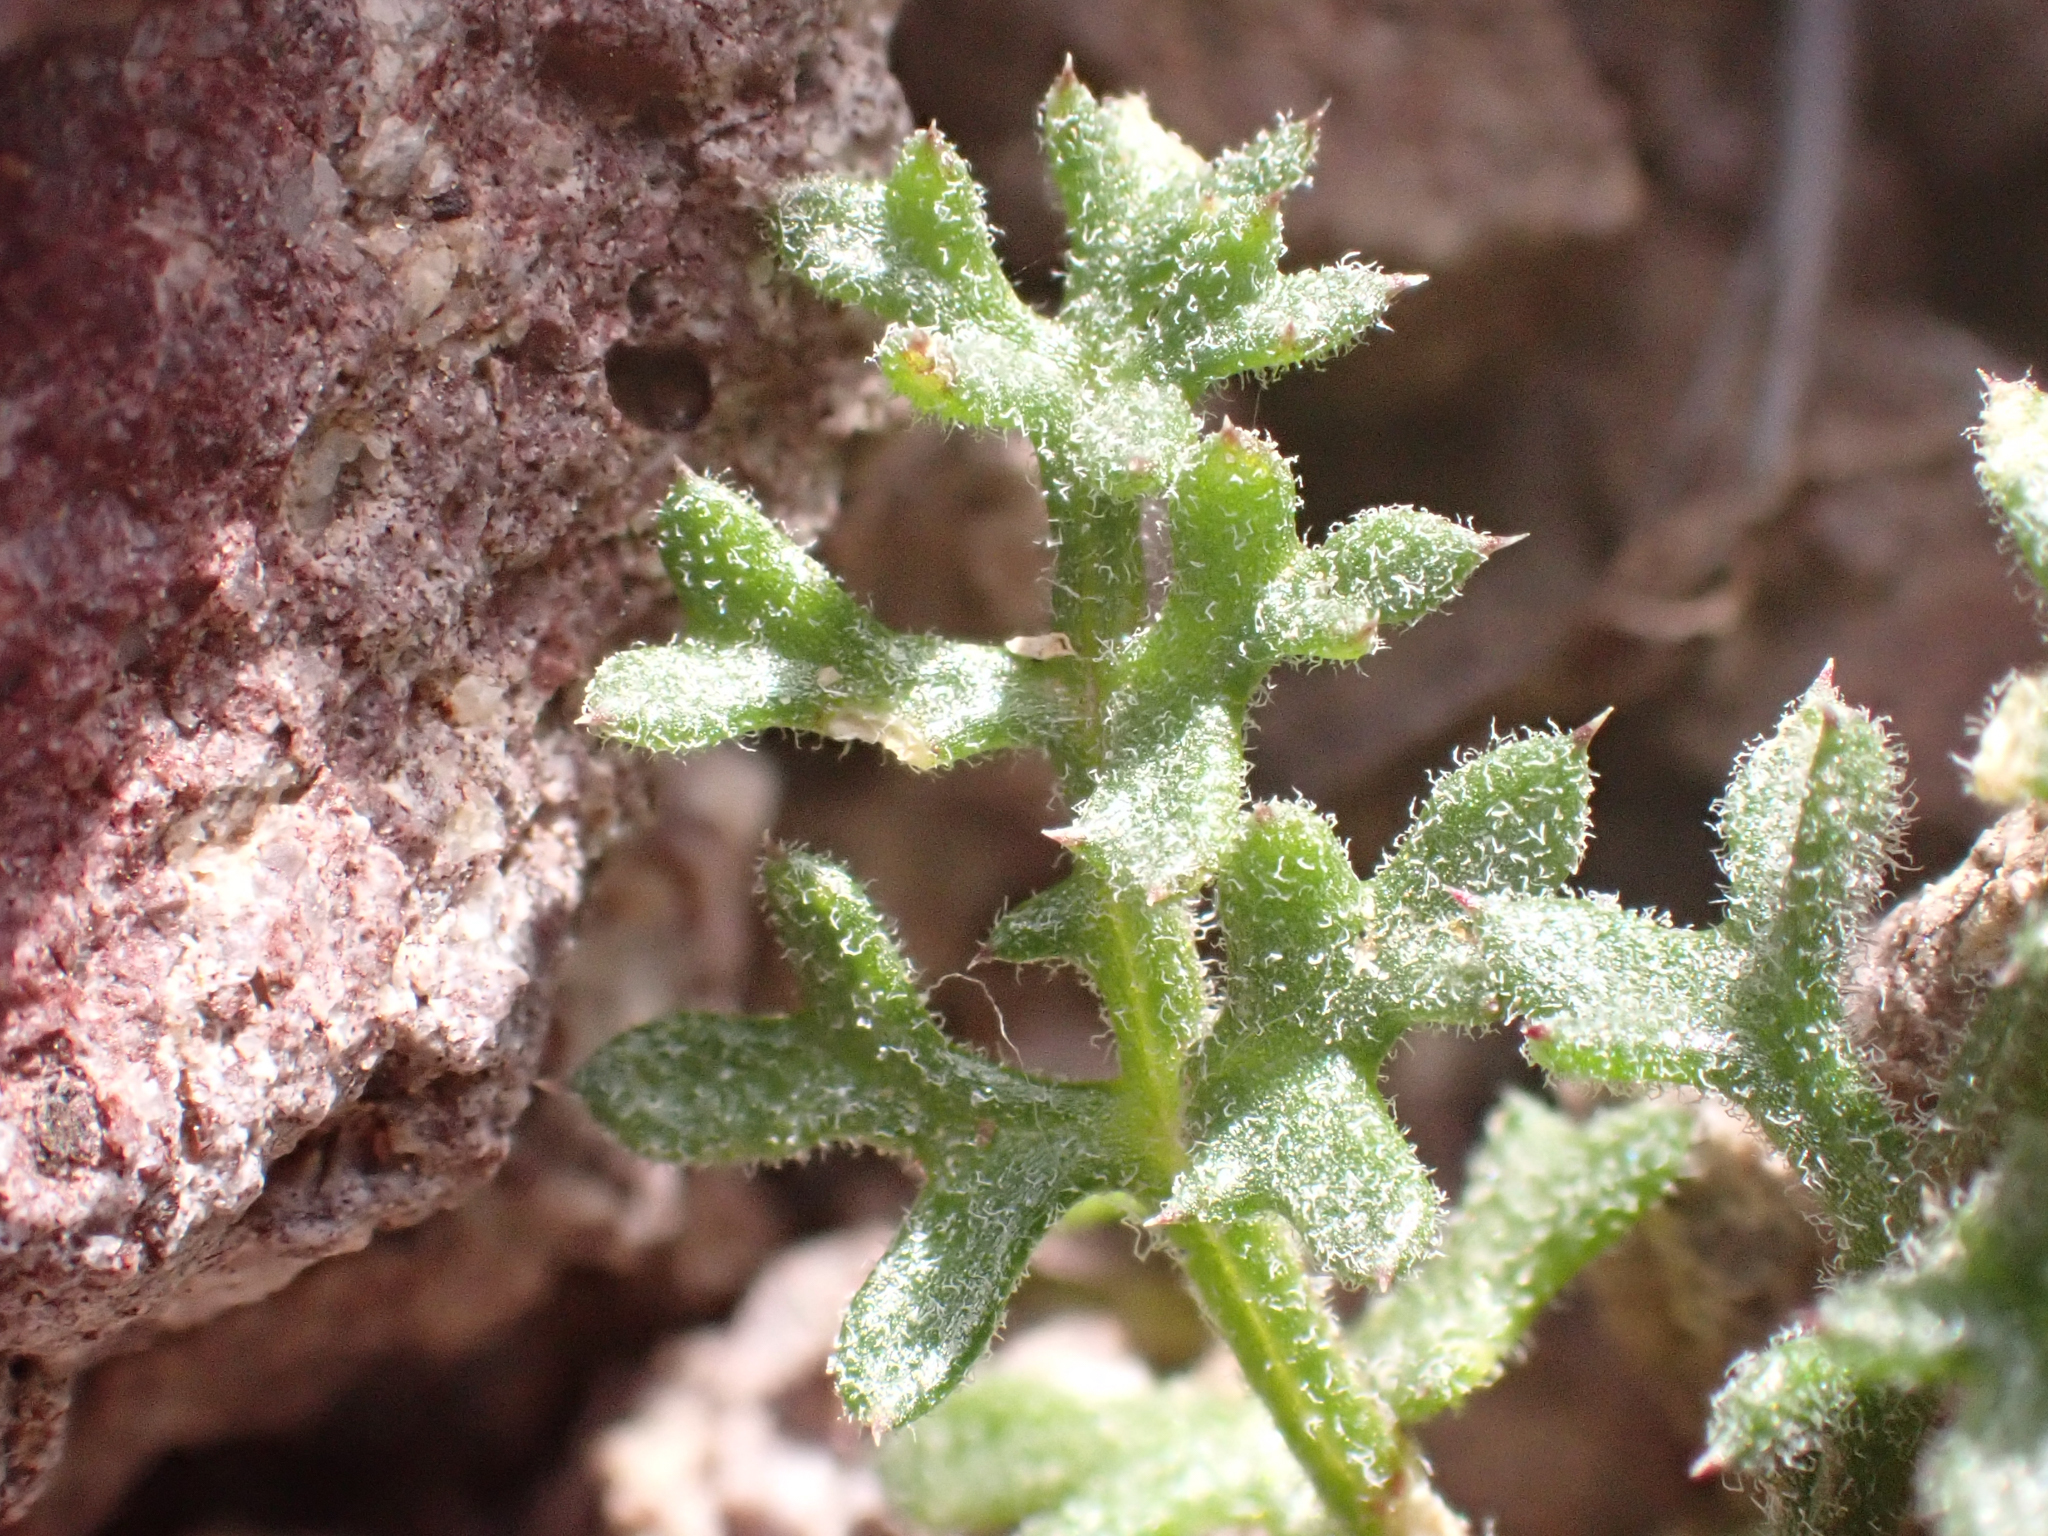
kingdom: Plantae
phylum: Tracheophyta
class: Magnoliopsida
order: Ericales
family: Polemoniaceae
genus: Gilia
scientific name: Gilia stellata
